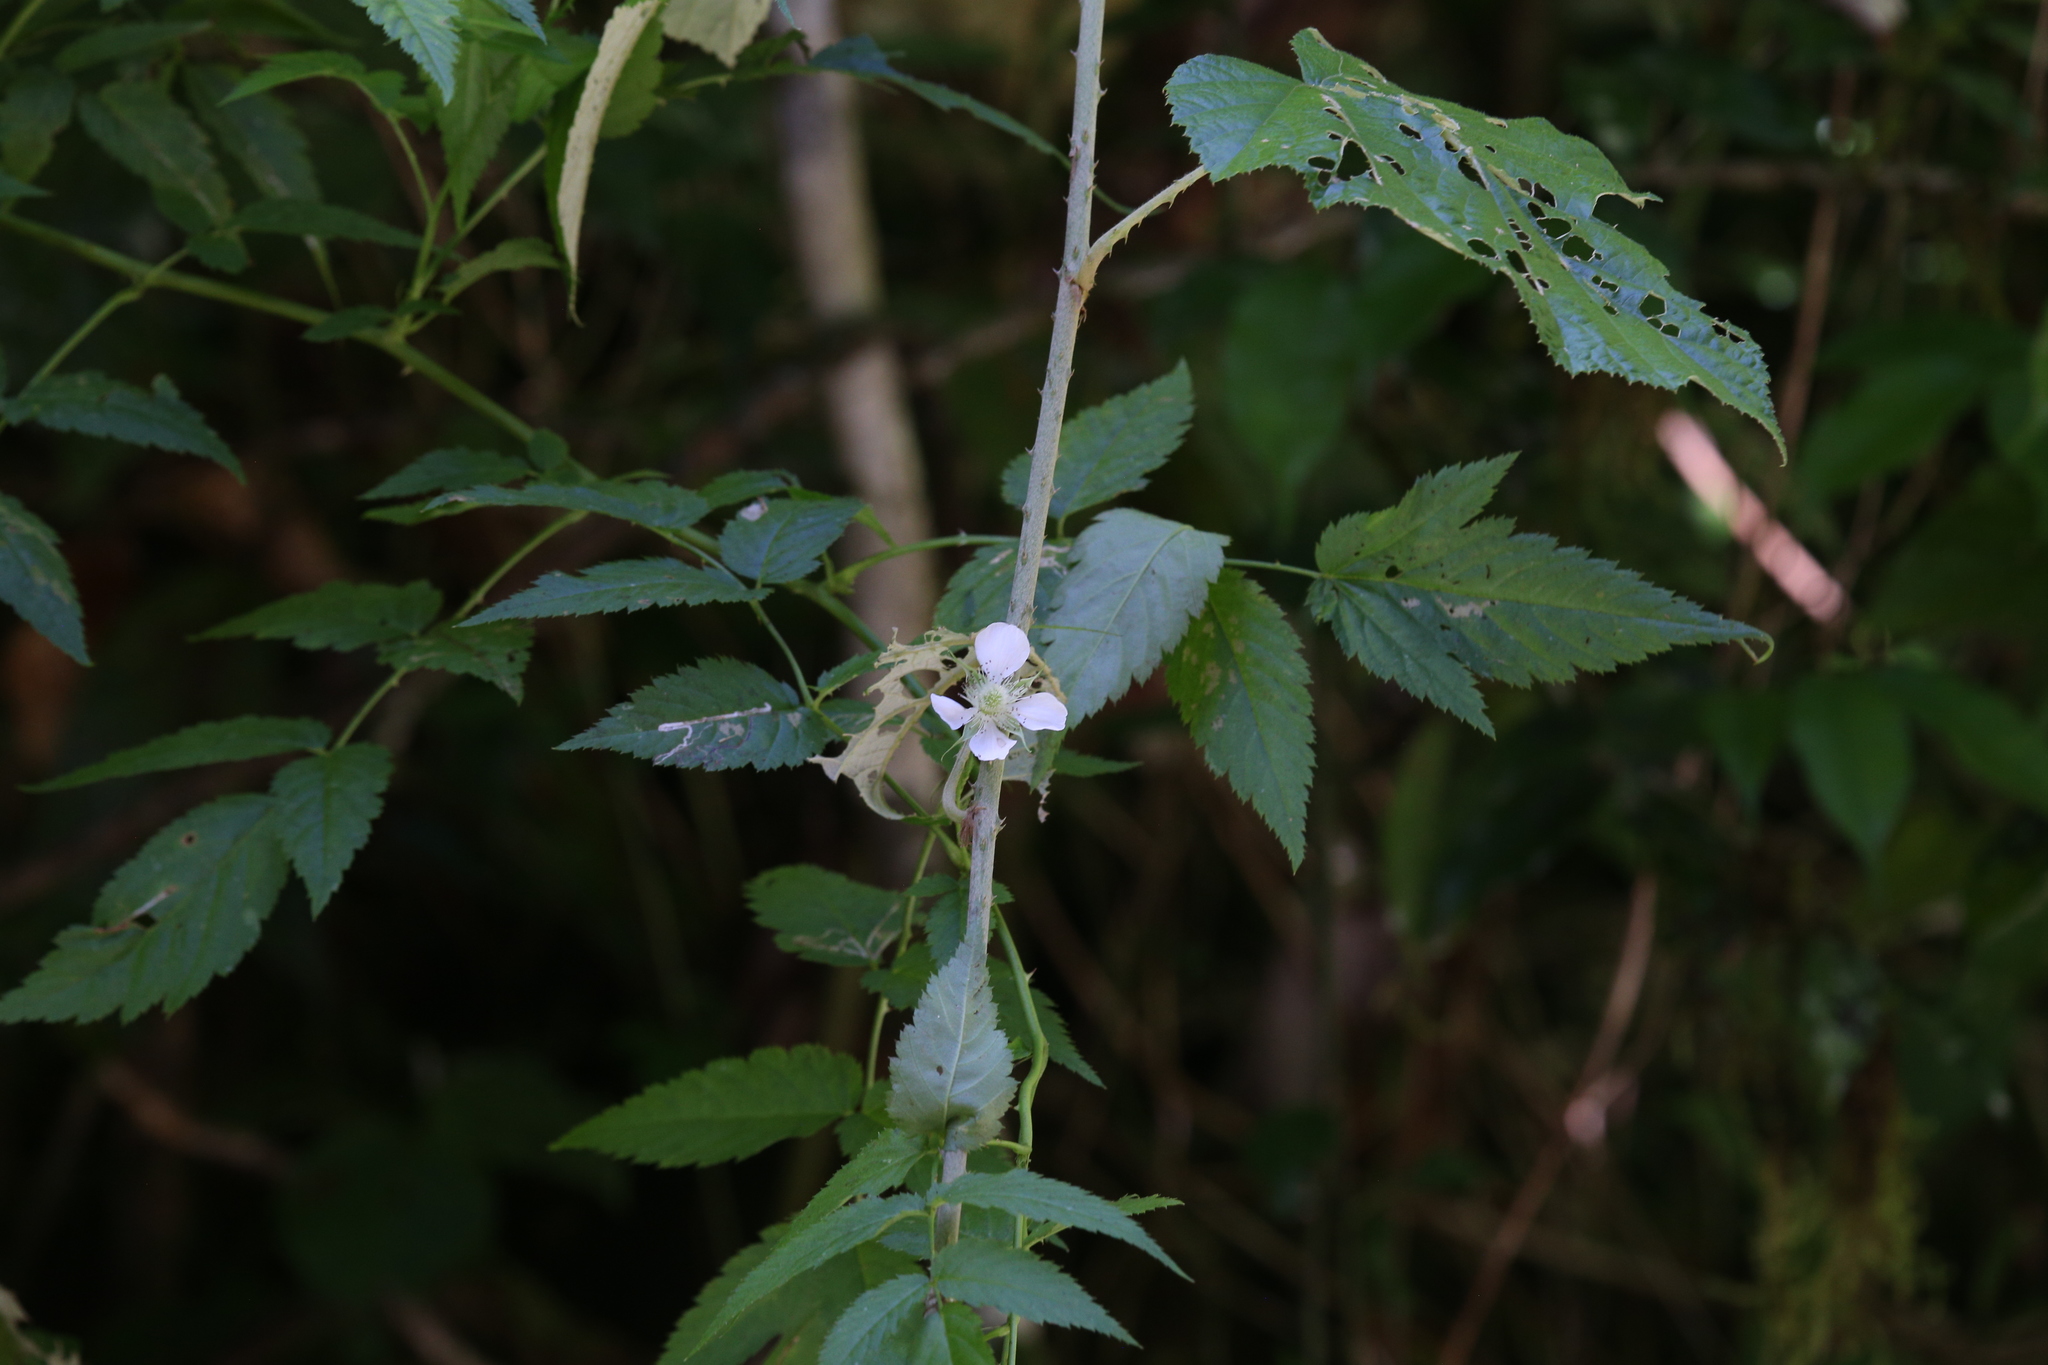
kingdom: Plantae
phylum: Tracheophyta
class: Magnoliopsida
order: Rosales
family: Rosaceae
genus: Rubus
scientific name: Rubus probus
